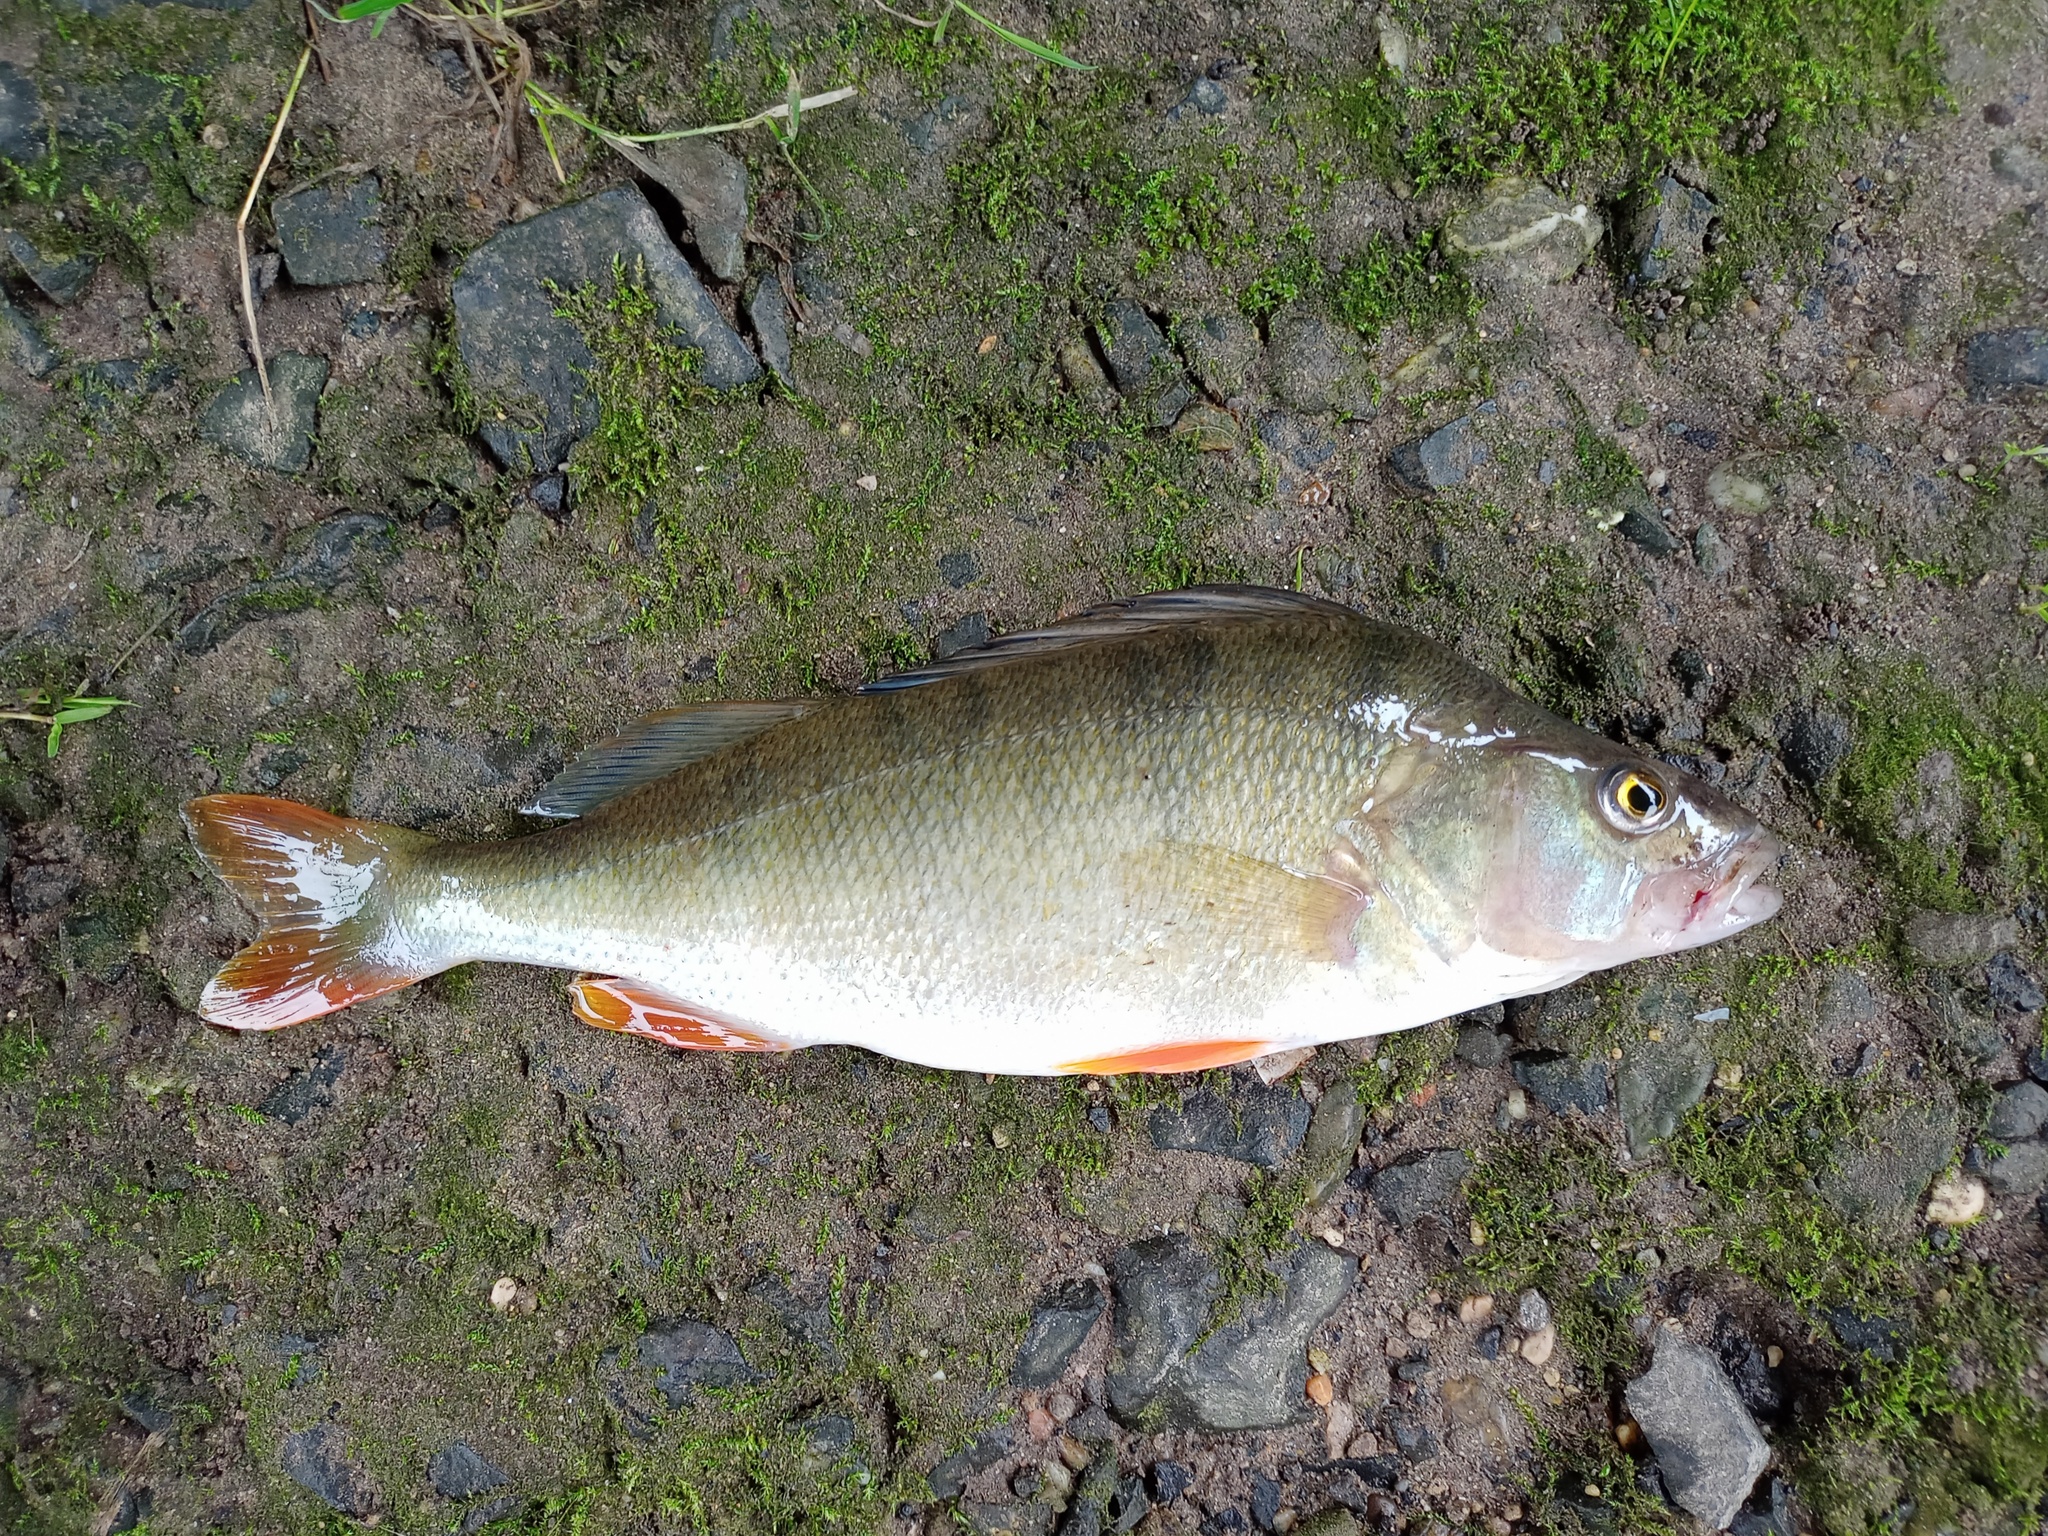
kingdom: Animalia
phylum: Chordata
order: Perciformes
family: Percidae
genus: Perca
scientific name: Perca fluviatilis
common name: Perch
